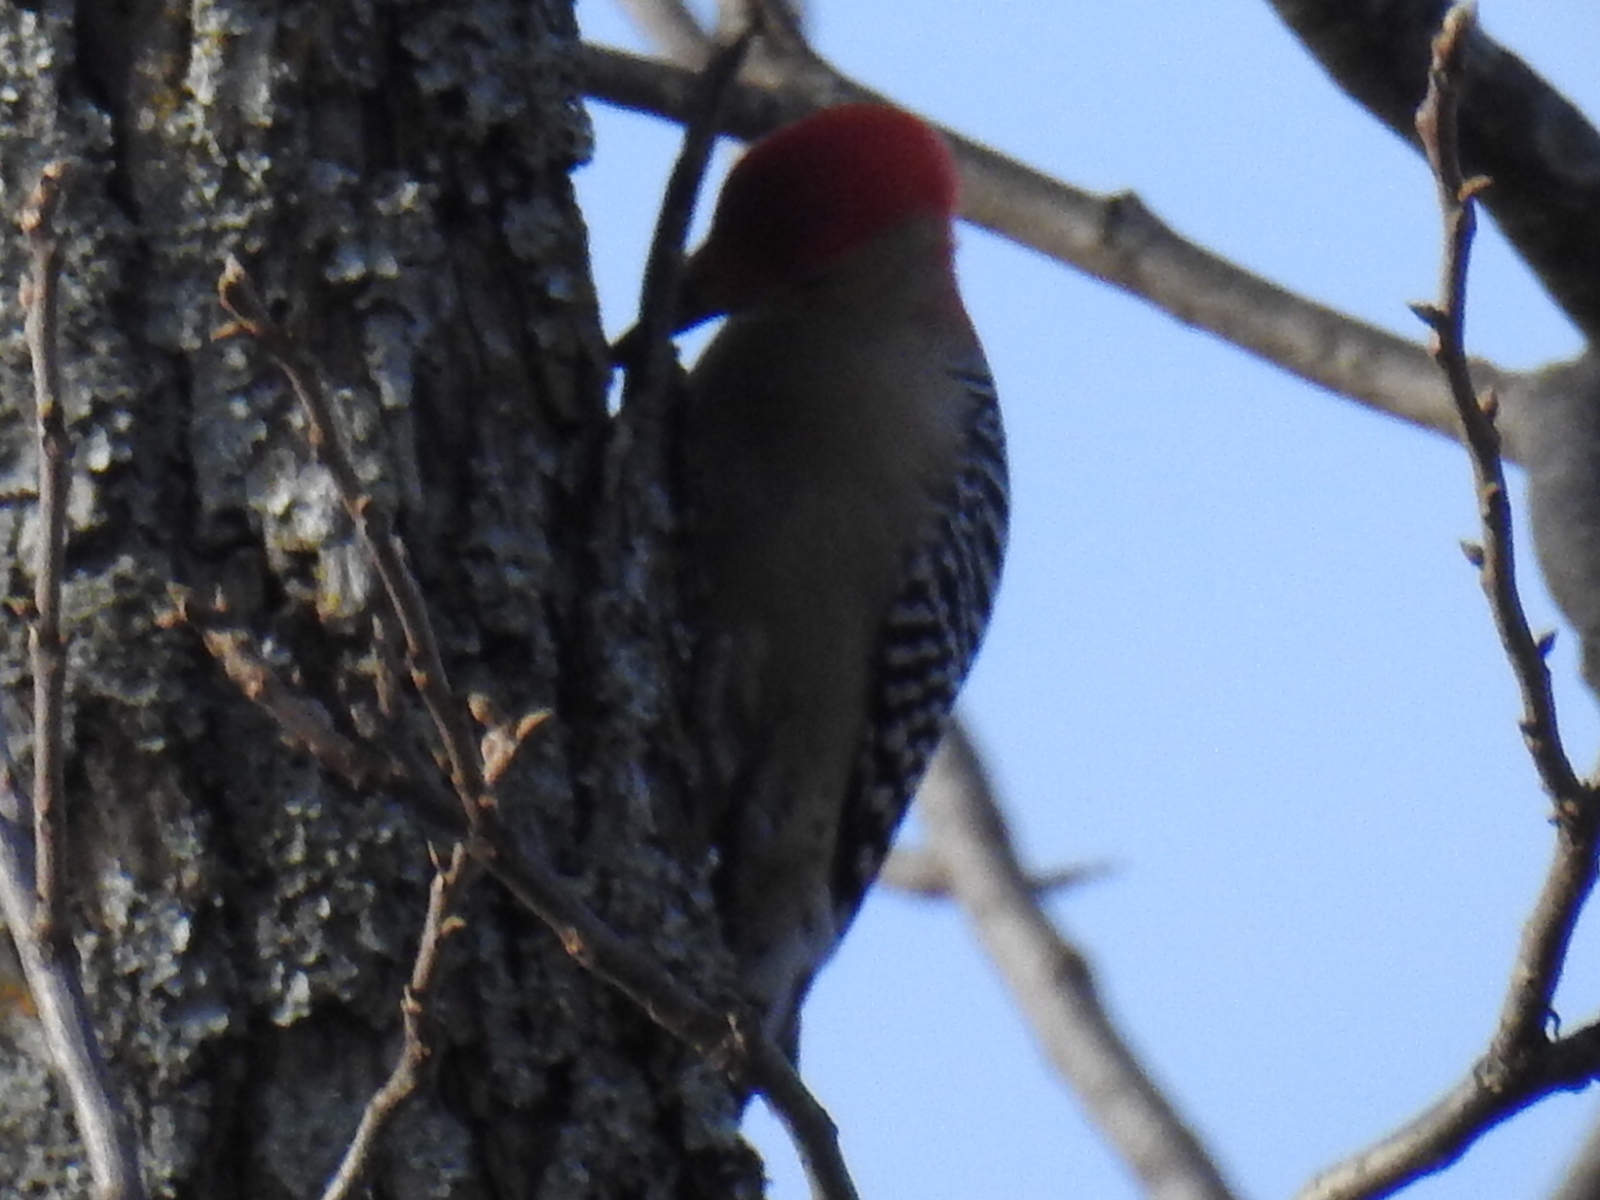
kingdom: Animalia
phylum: Chordata
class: Aves
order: Piciformes
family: Picidae
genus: Melanerpes
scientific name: Melanerpes carolinus
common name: Red-bellied woodpecker
